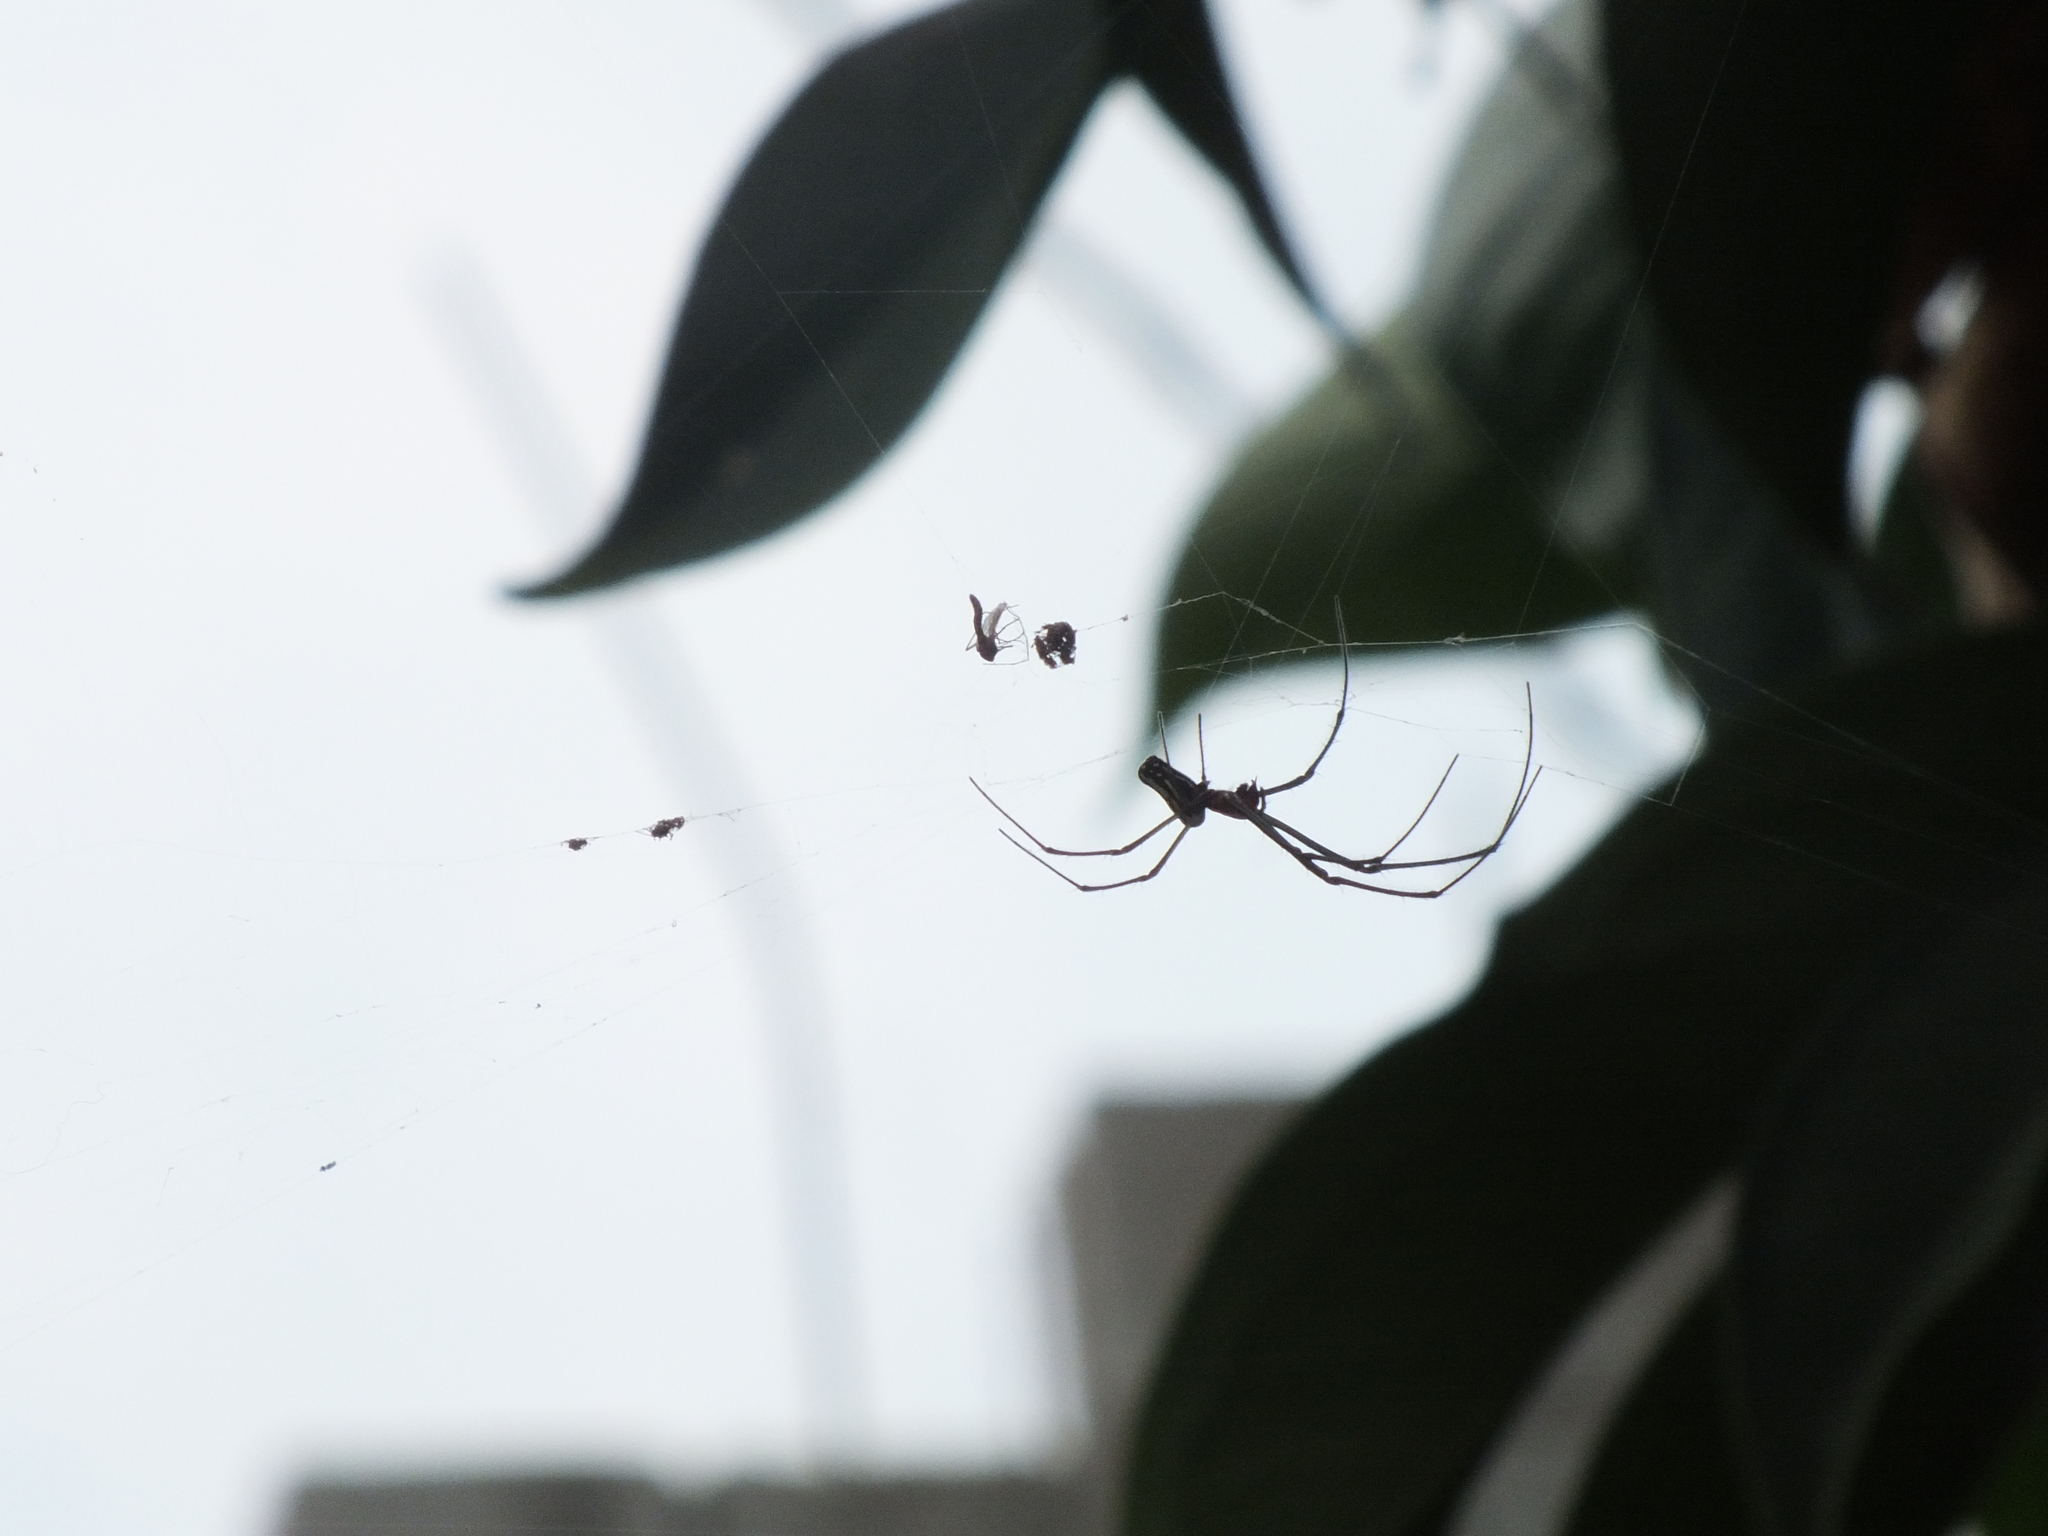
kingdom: Animalia
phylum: Arthropoda
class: Arachnida
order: Araneae
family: Tetragnathidae
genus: Leucauge
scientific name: Leucauge argyra
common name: Longjawed orb weavers
